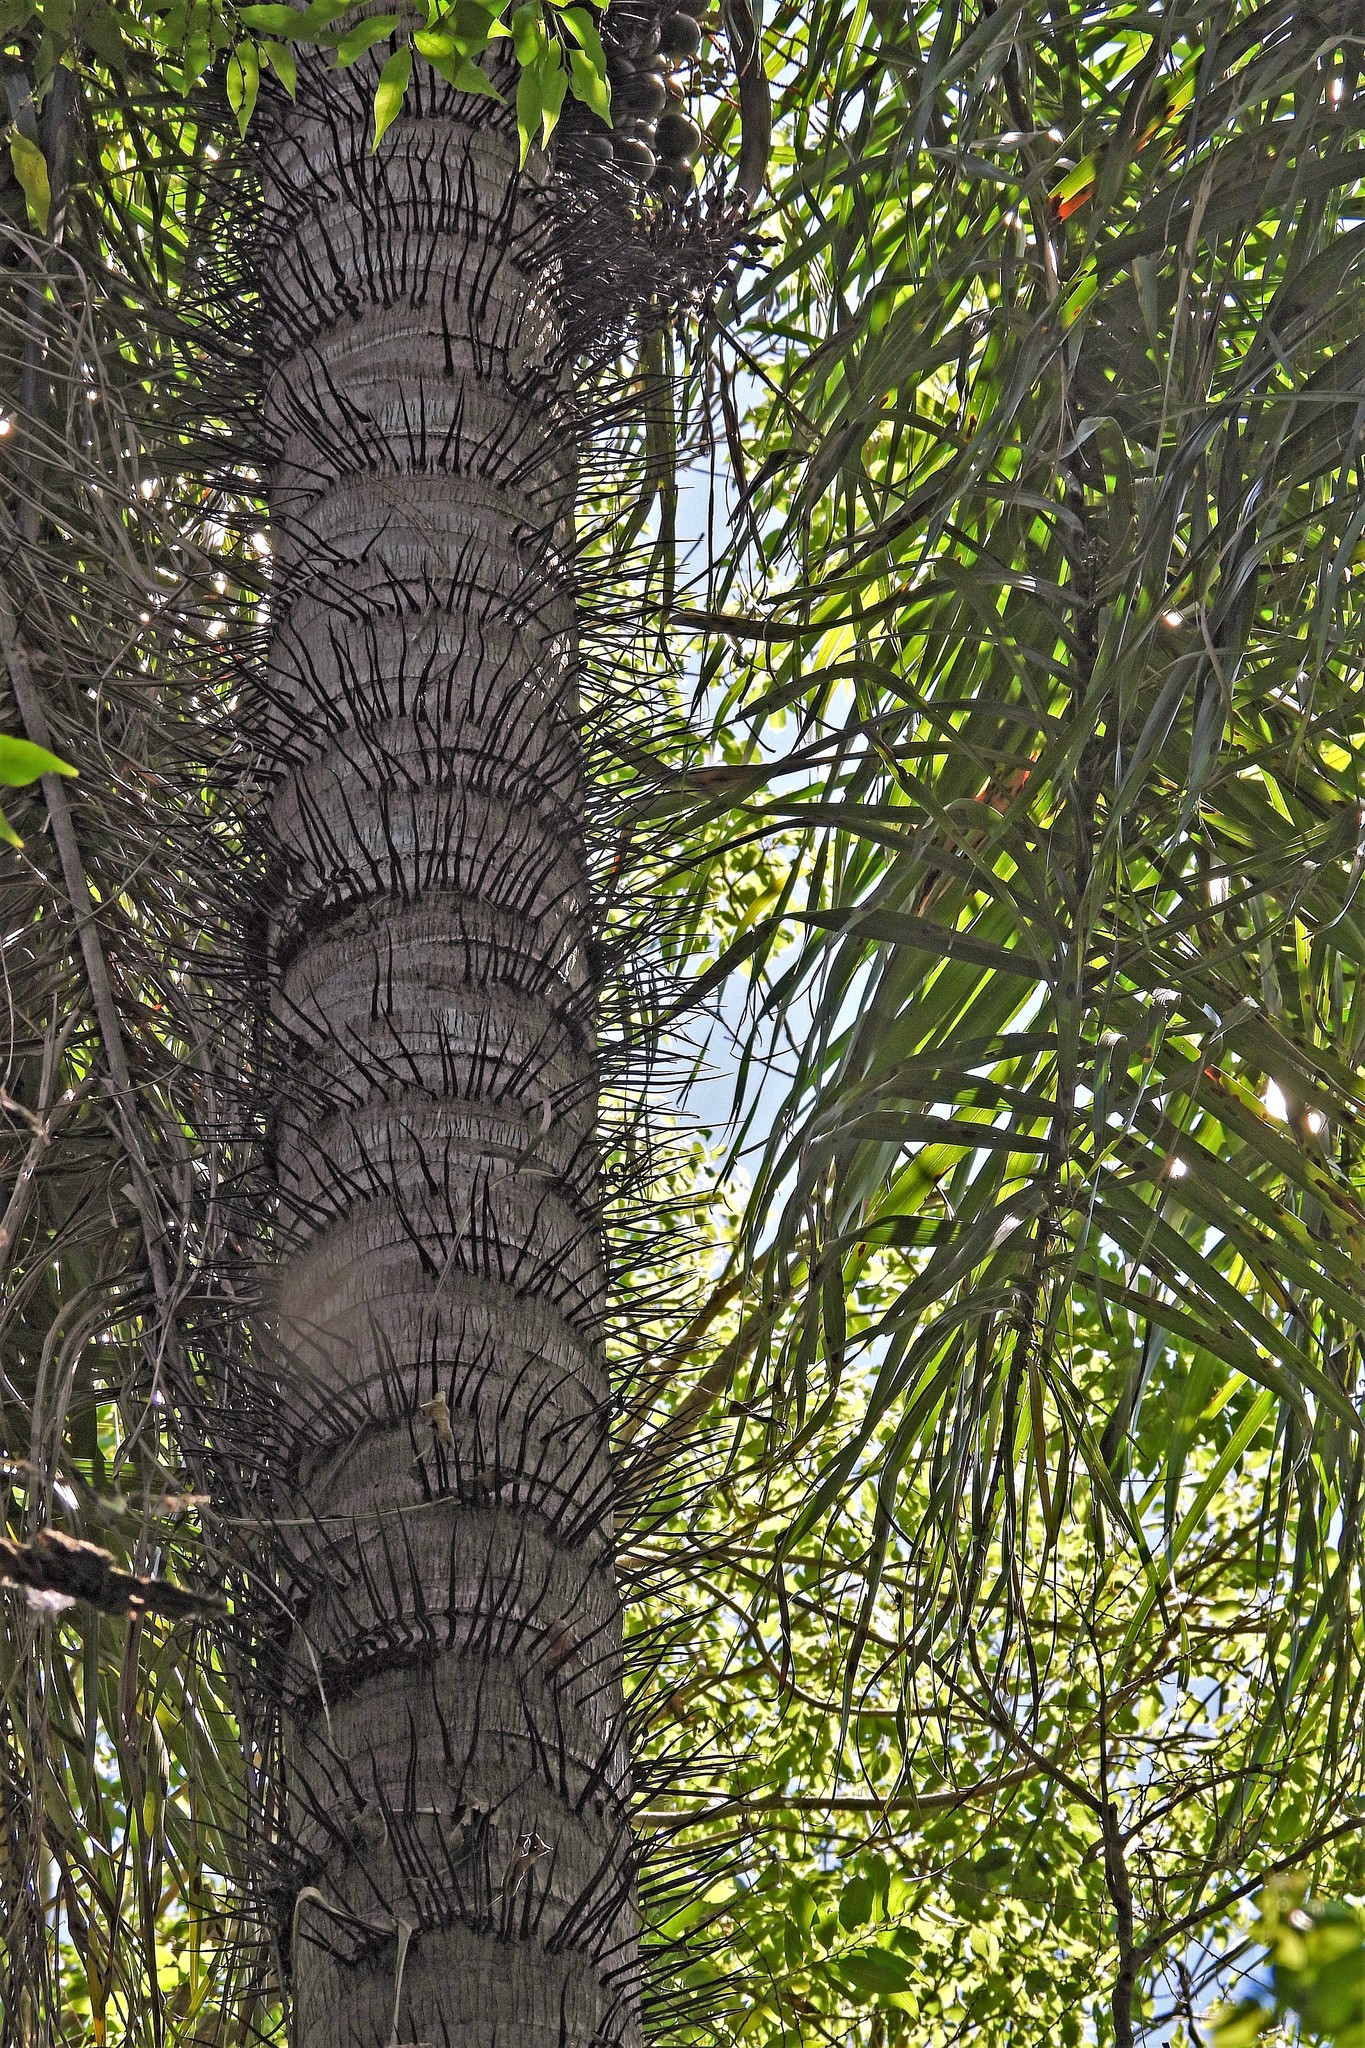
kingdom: Plantae
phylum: Tracheophyta
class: Liliopsida
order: Arecales
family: Arecaceae
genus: Acrocomia
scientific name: Acrocomia aculeata
